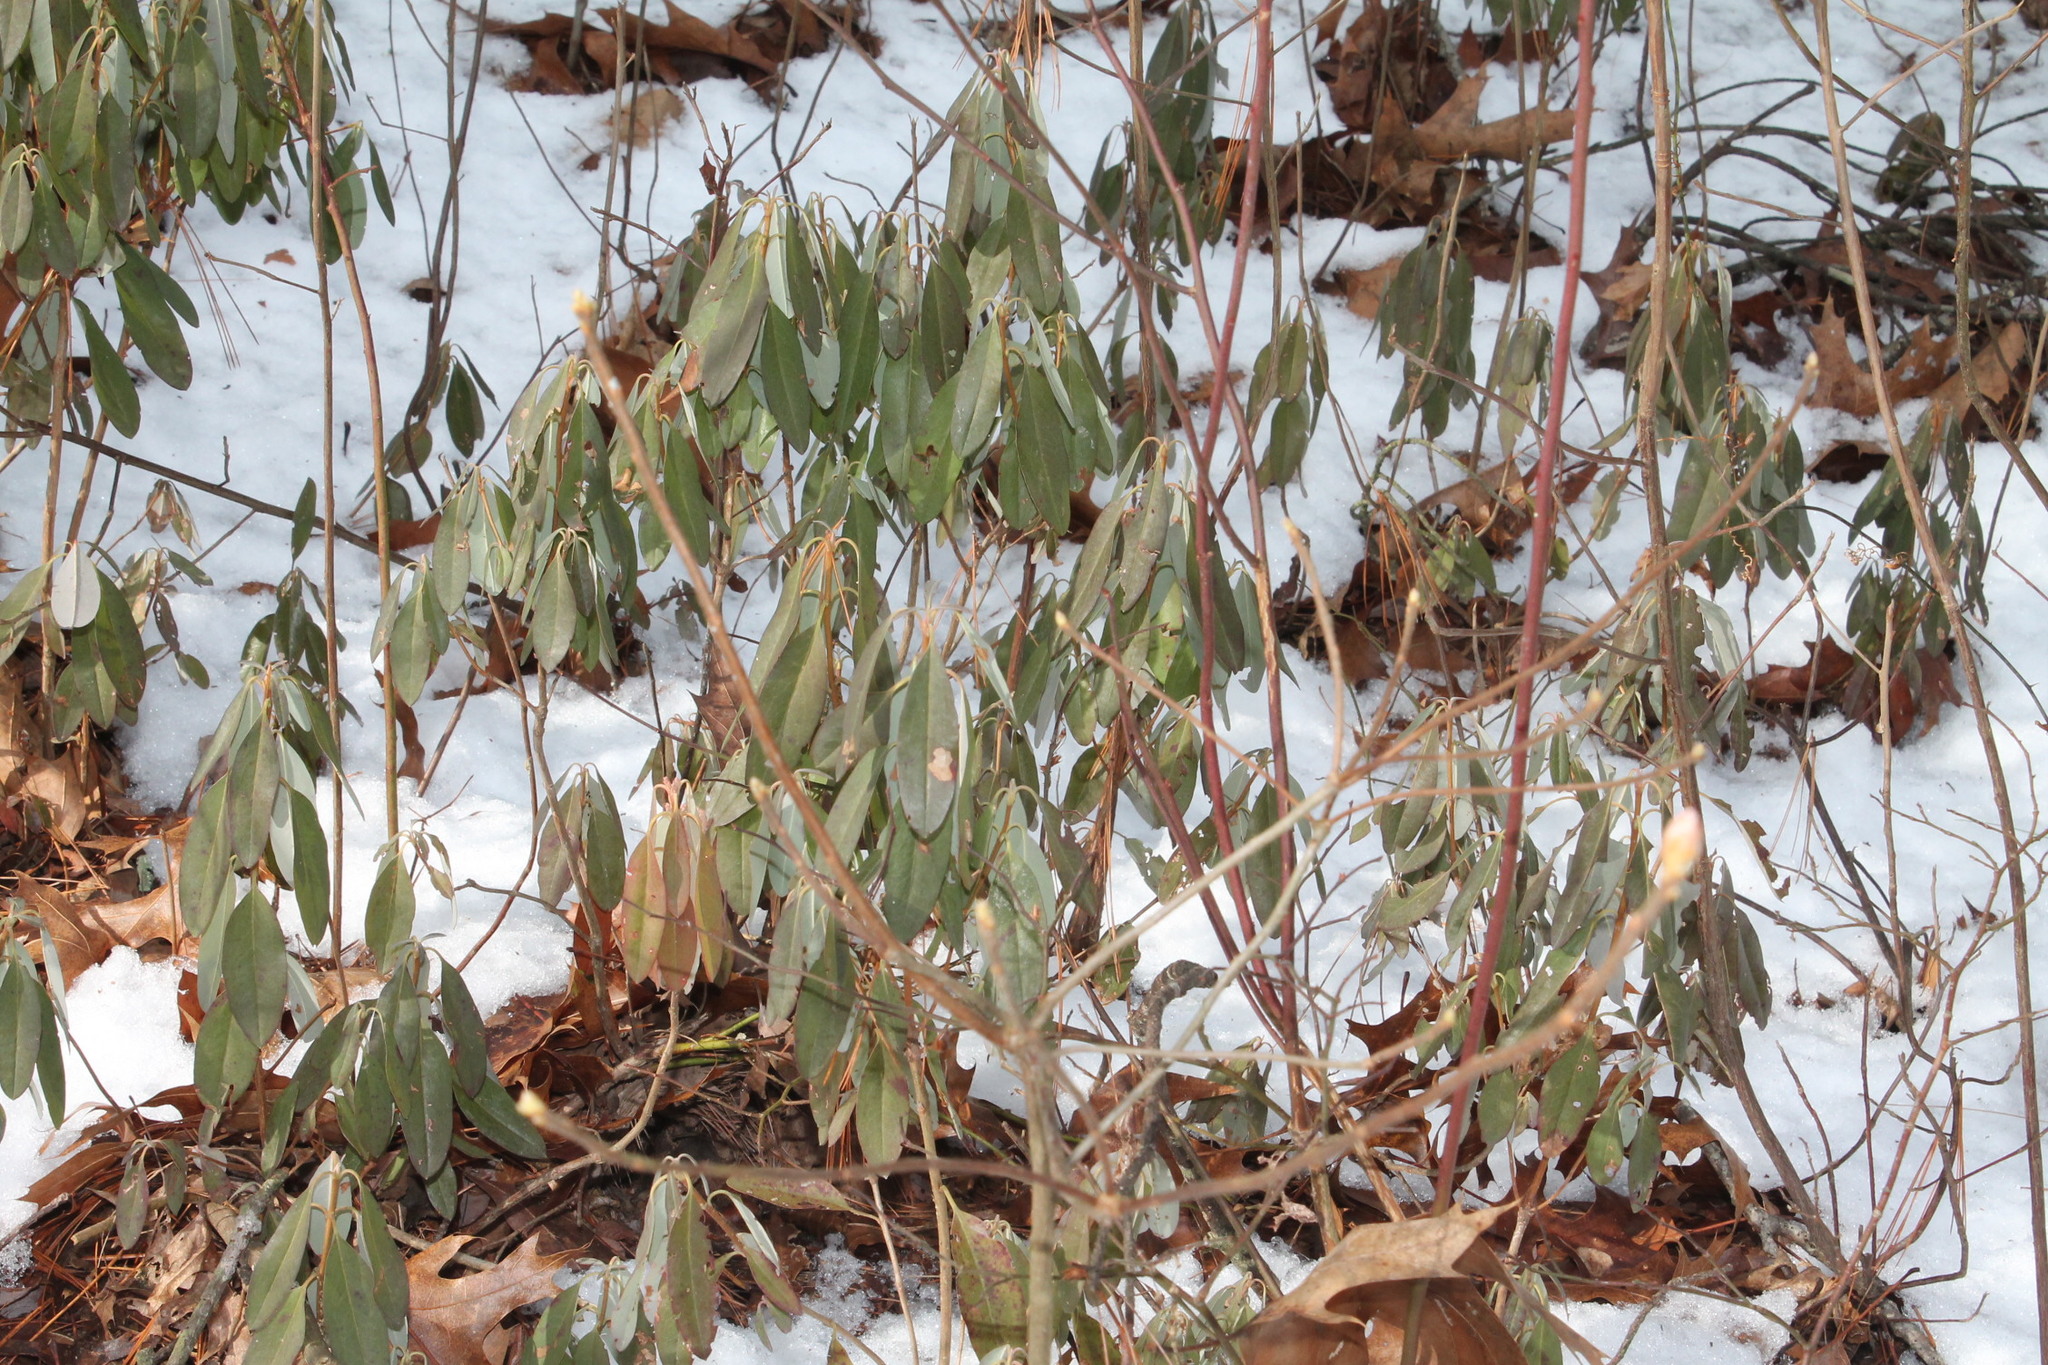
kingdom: Plantae
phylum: Tracheophyta
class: Magnoliopsida
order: Ericales
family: Ericaceae
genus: Kalmia
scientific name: Kalmia angustifolia
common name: Sheep-laurel
